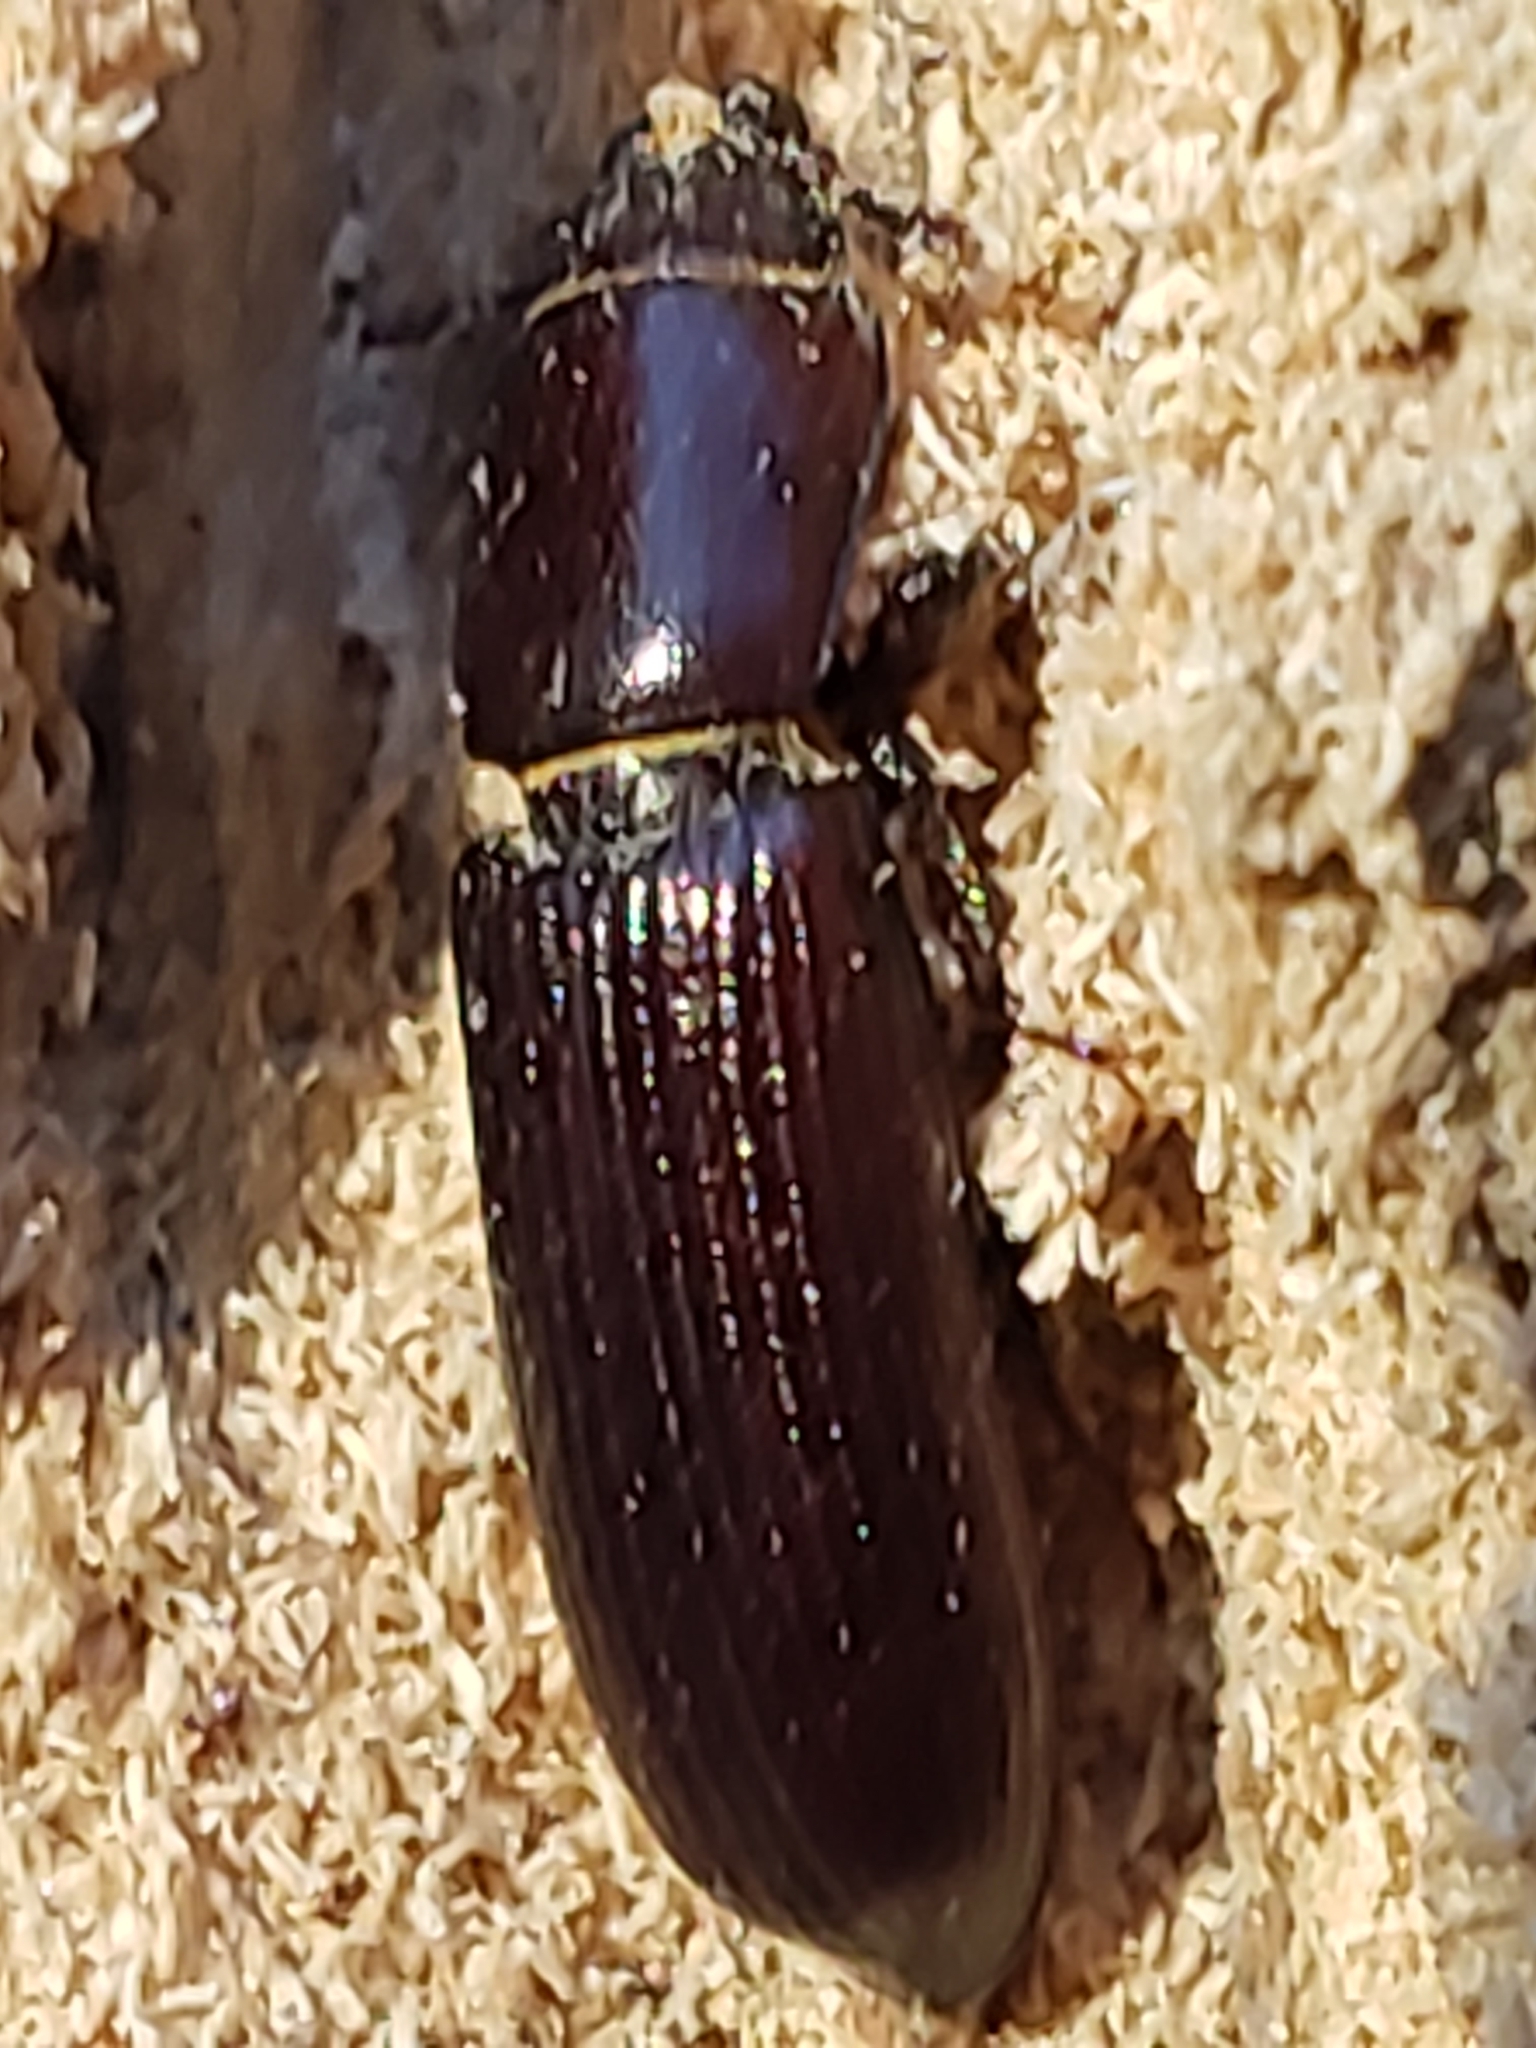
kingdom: Animalia
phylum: Arthropoda
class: Insecta
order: Coleoptera
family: Trogossitidae
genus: Tenebroides
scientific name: Tenebroides americanus
